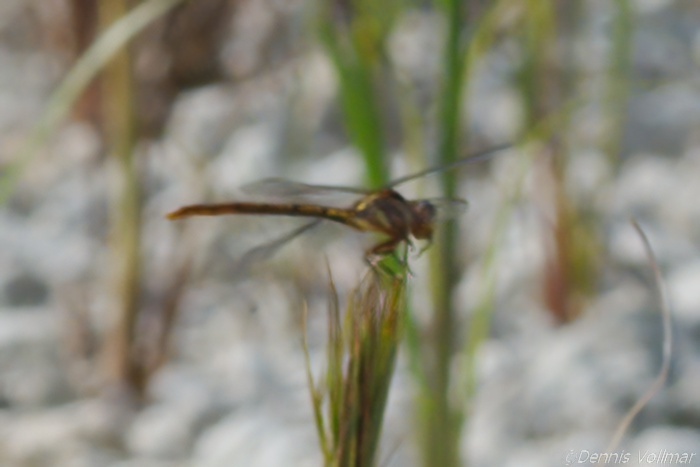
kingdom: Animalia
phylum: Arthropoda
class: Insecta
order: Odonata
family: Gomphidae
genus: Aphylla
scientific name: Aphylla williamsoni
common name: Two-striped forceptail
